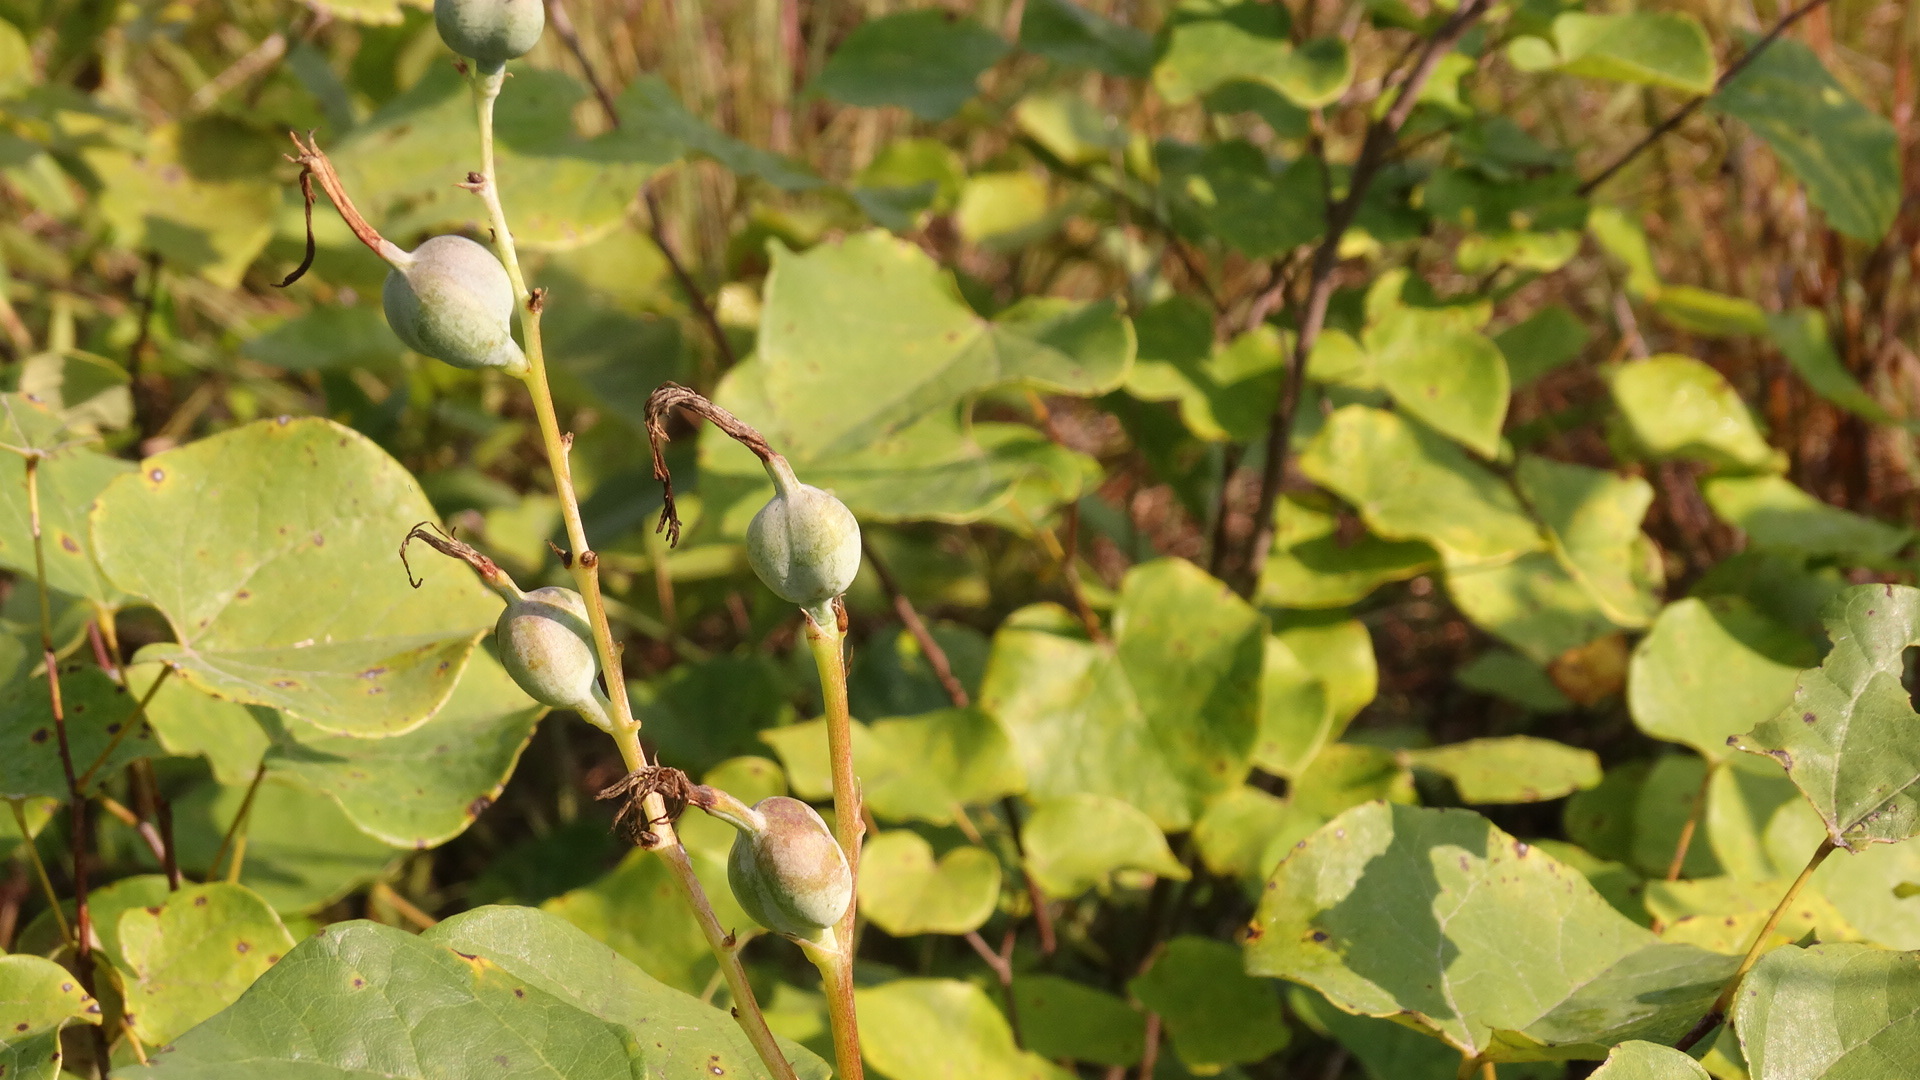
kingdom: Plantae
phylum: Tracheophyta
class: Magnoliopsida
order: Fabales
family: Fabaceae
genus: Cercis
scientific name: Cercis canadensis
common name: Eastern redbud
